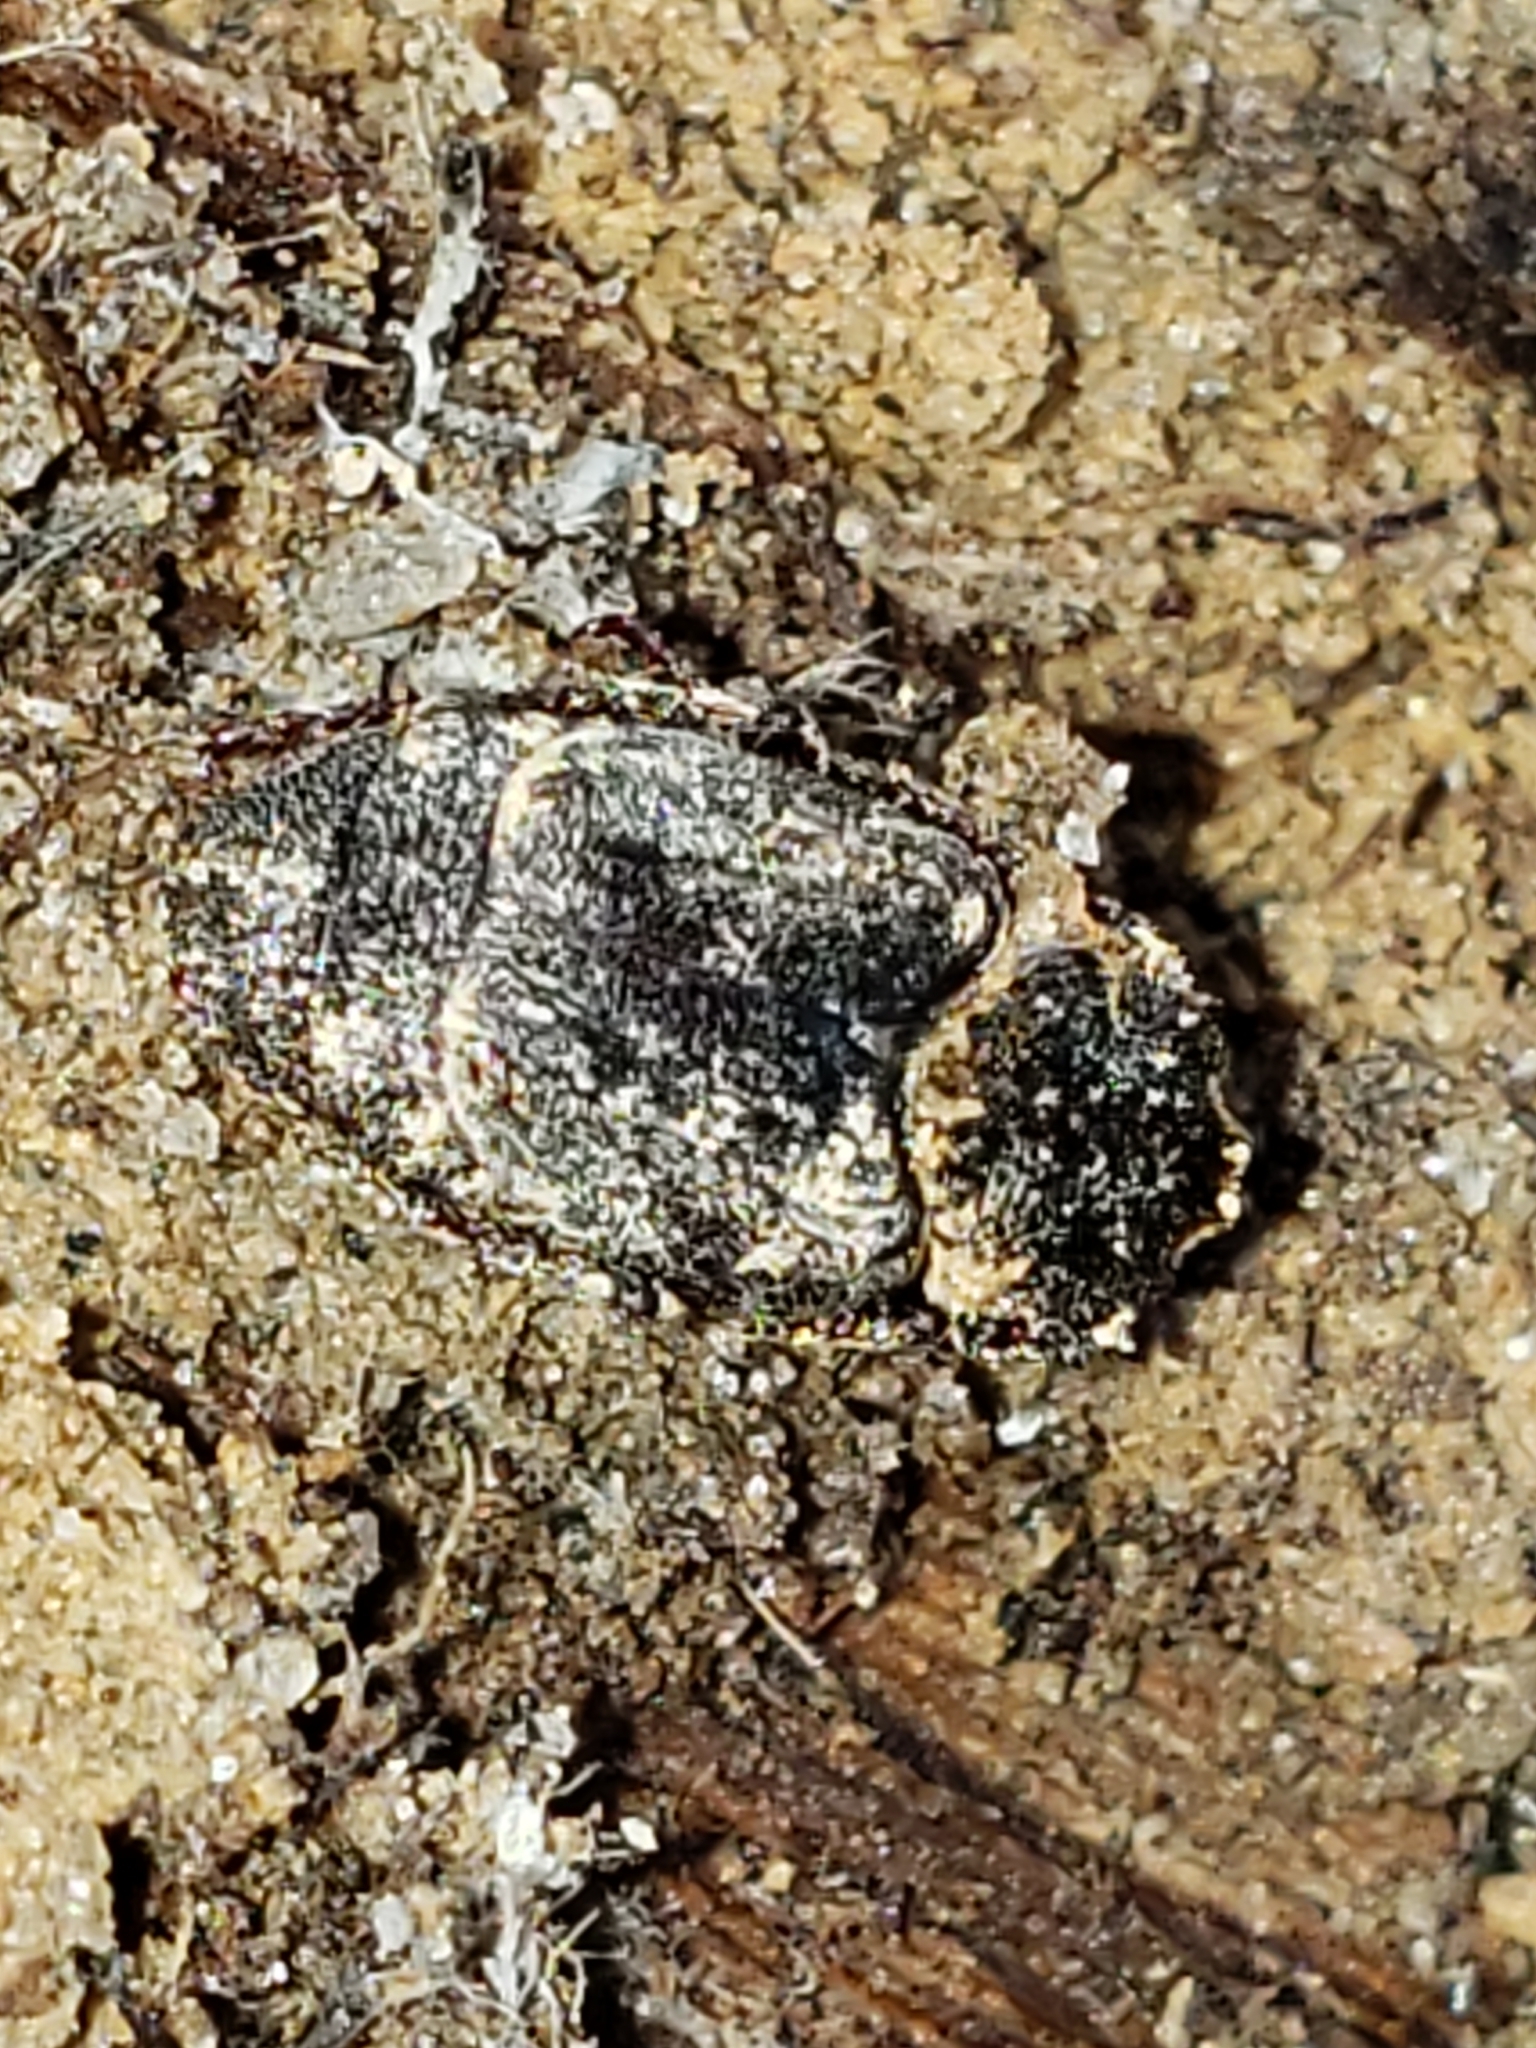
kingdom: Animalia
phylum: Arthropoda
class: Insecta
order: Coleoptera
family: Scarabaeidae
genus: Valgus
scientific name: Valgus seticollis
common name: Bristly-necked valgus
